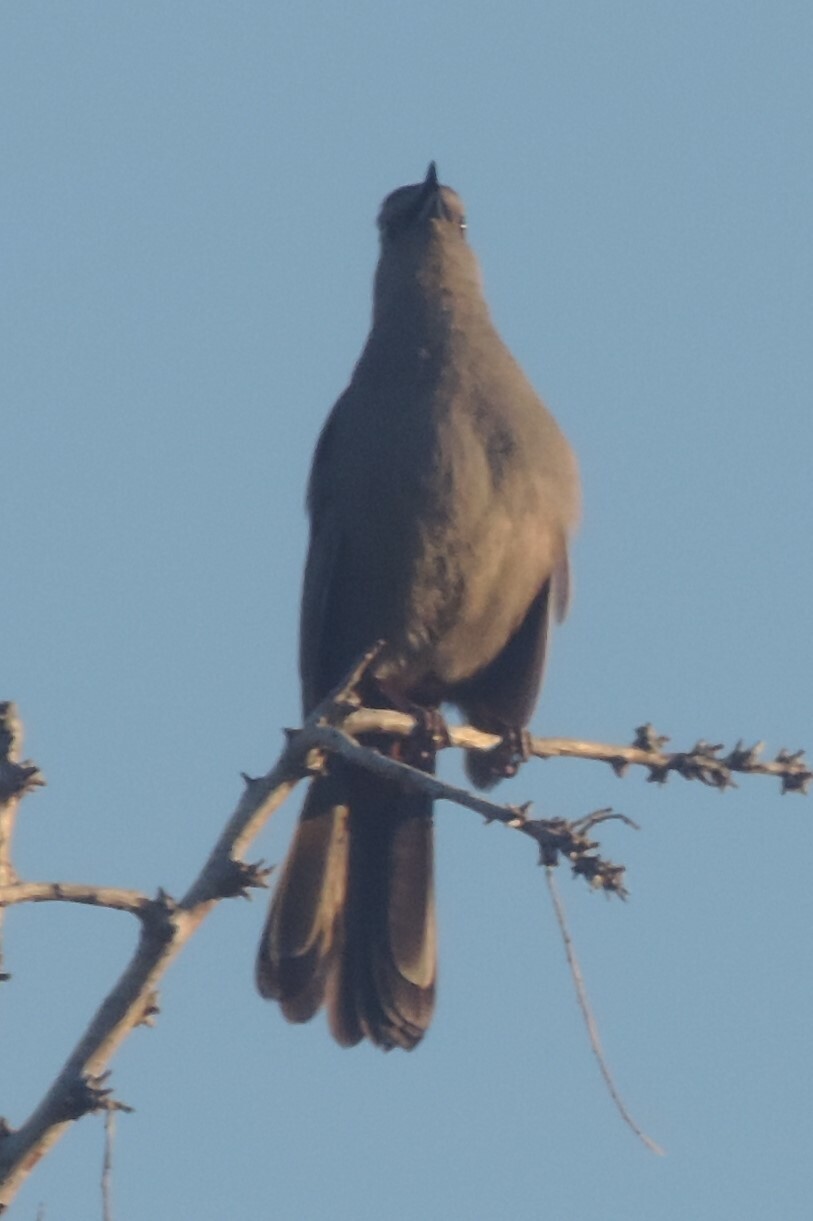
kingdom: Animalia
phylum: Chordata
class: Aves
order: Passeriformes
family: Mimidae
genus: Dumetella
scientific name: Dumetella carolinensis
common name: Gray catbird
